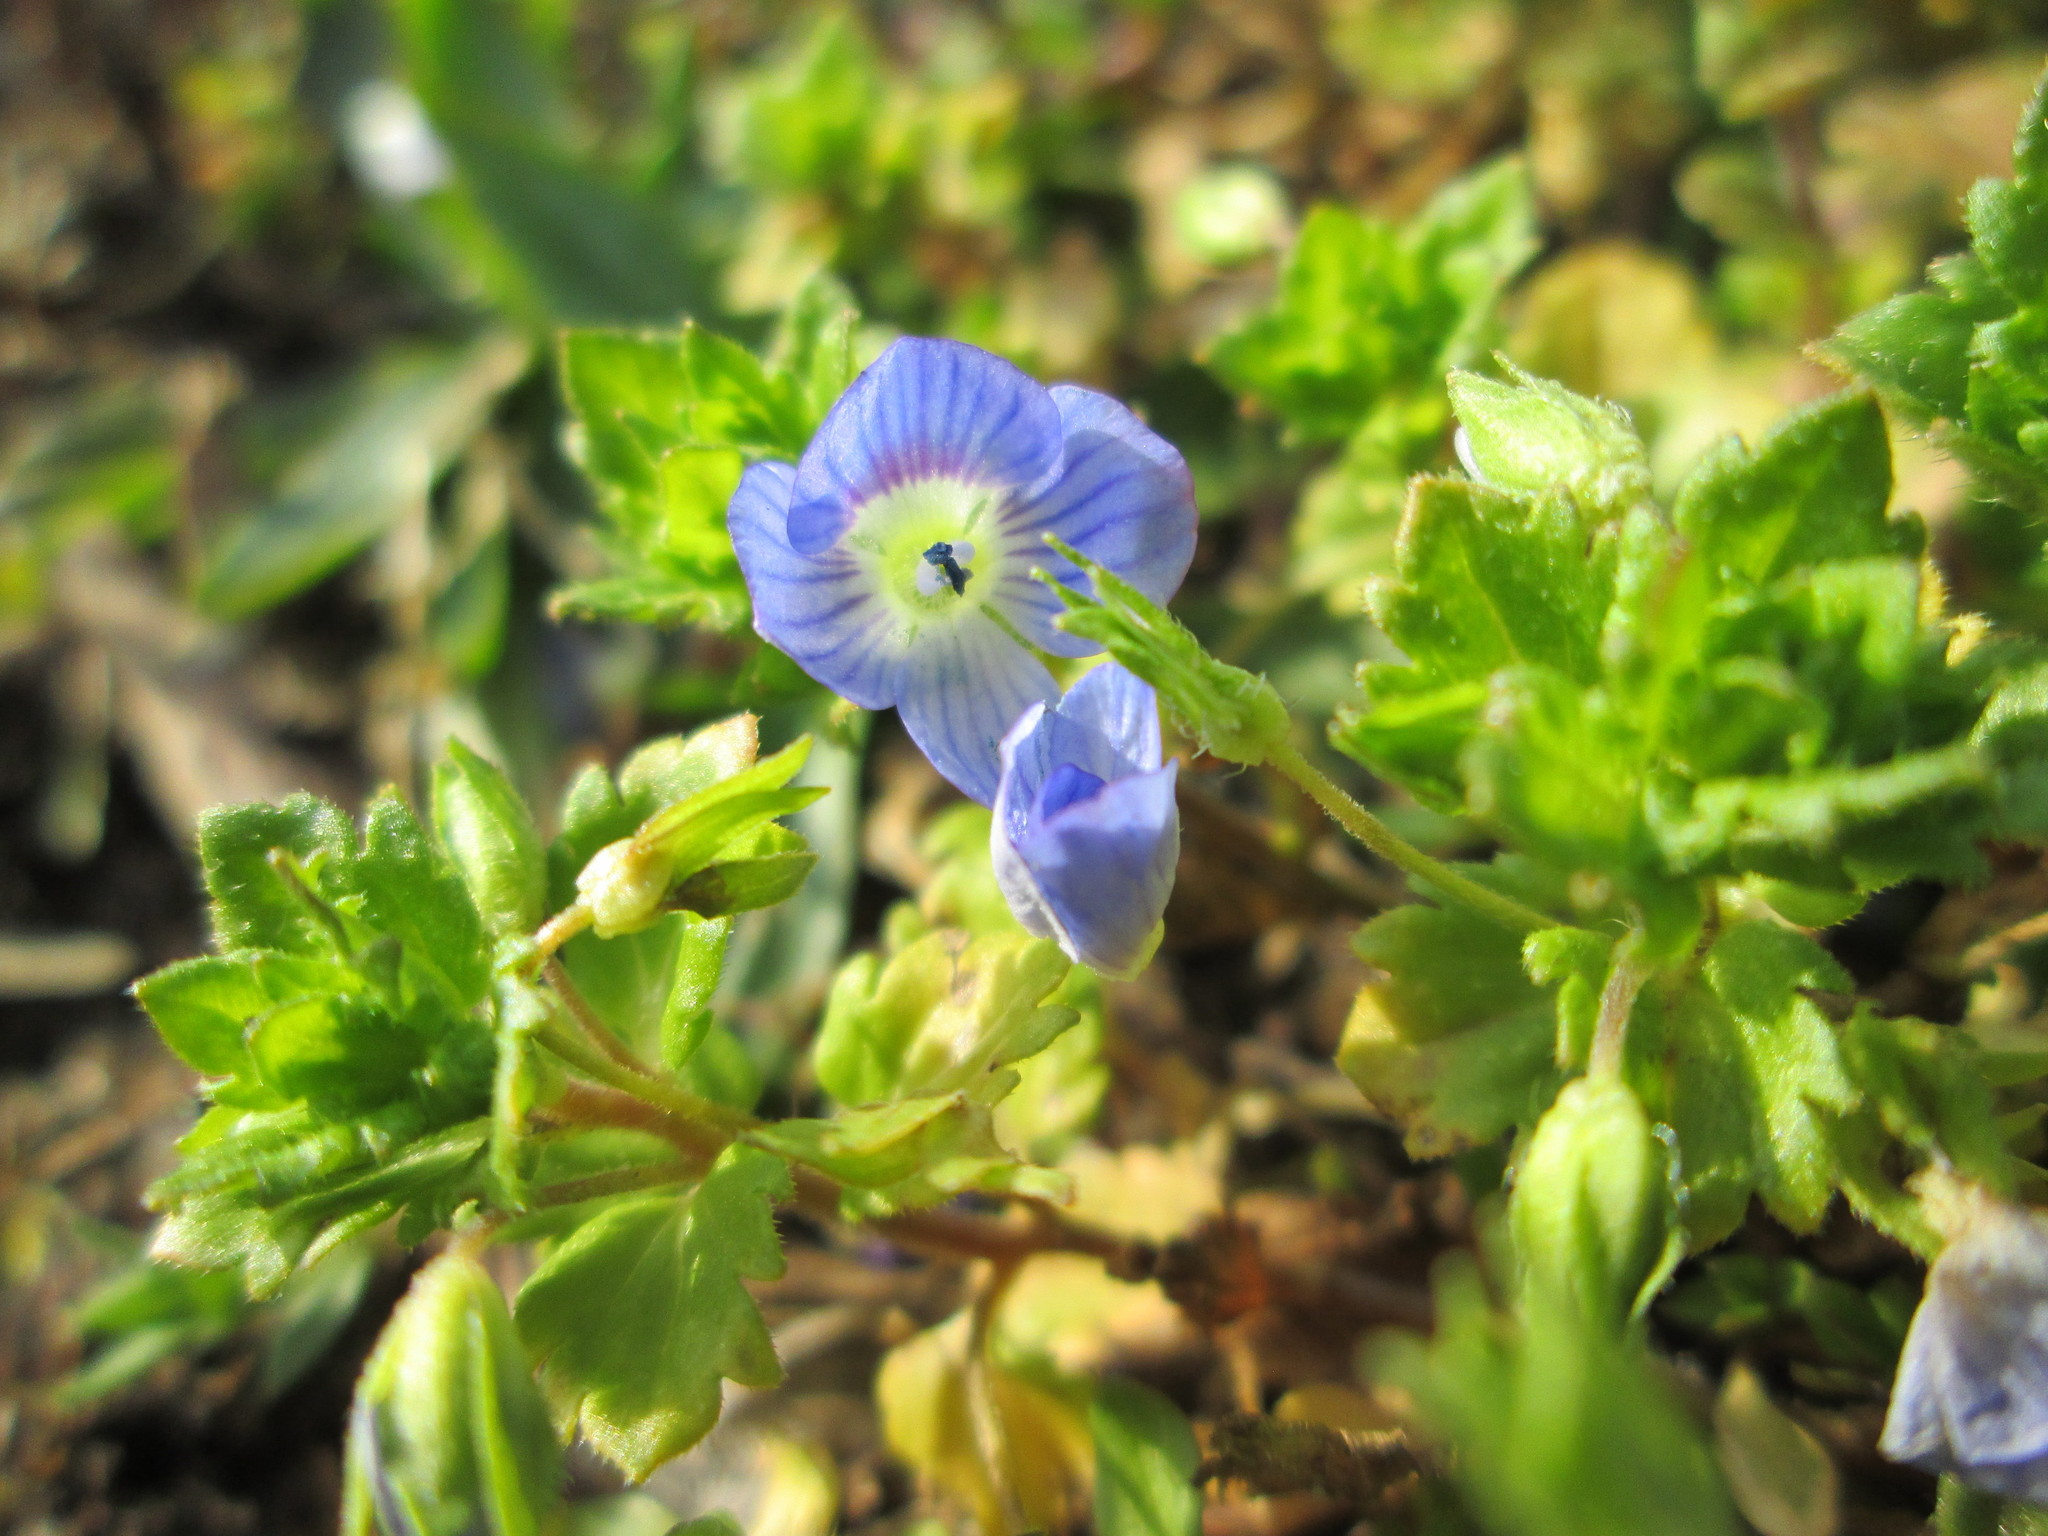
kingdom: Plantae
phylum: Tracheophyta
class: Magnoliopsida
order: Lamiales
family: Plantaginaceae
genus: Veronica
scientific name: Veronica persica
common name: Common field-speedwell
